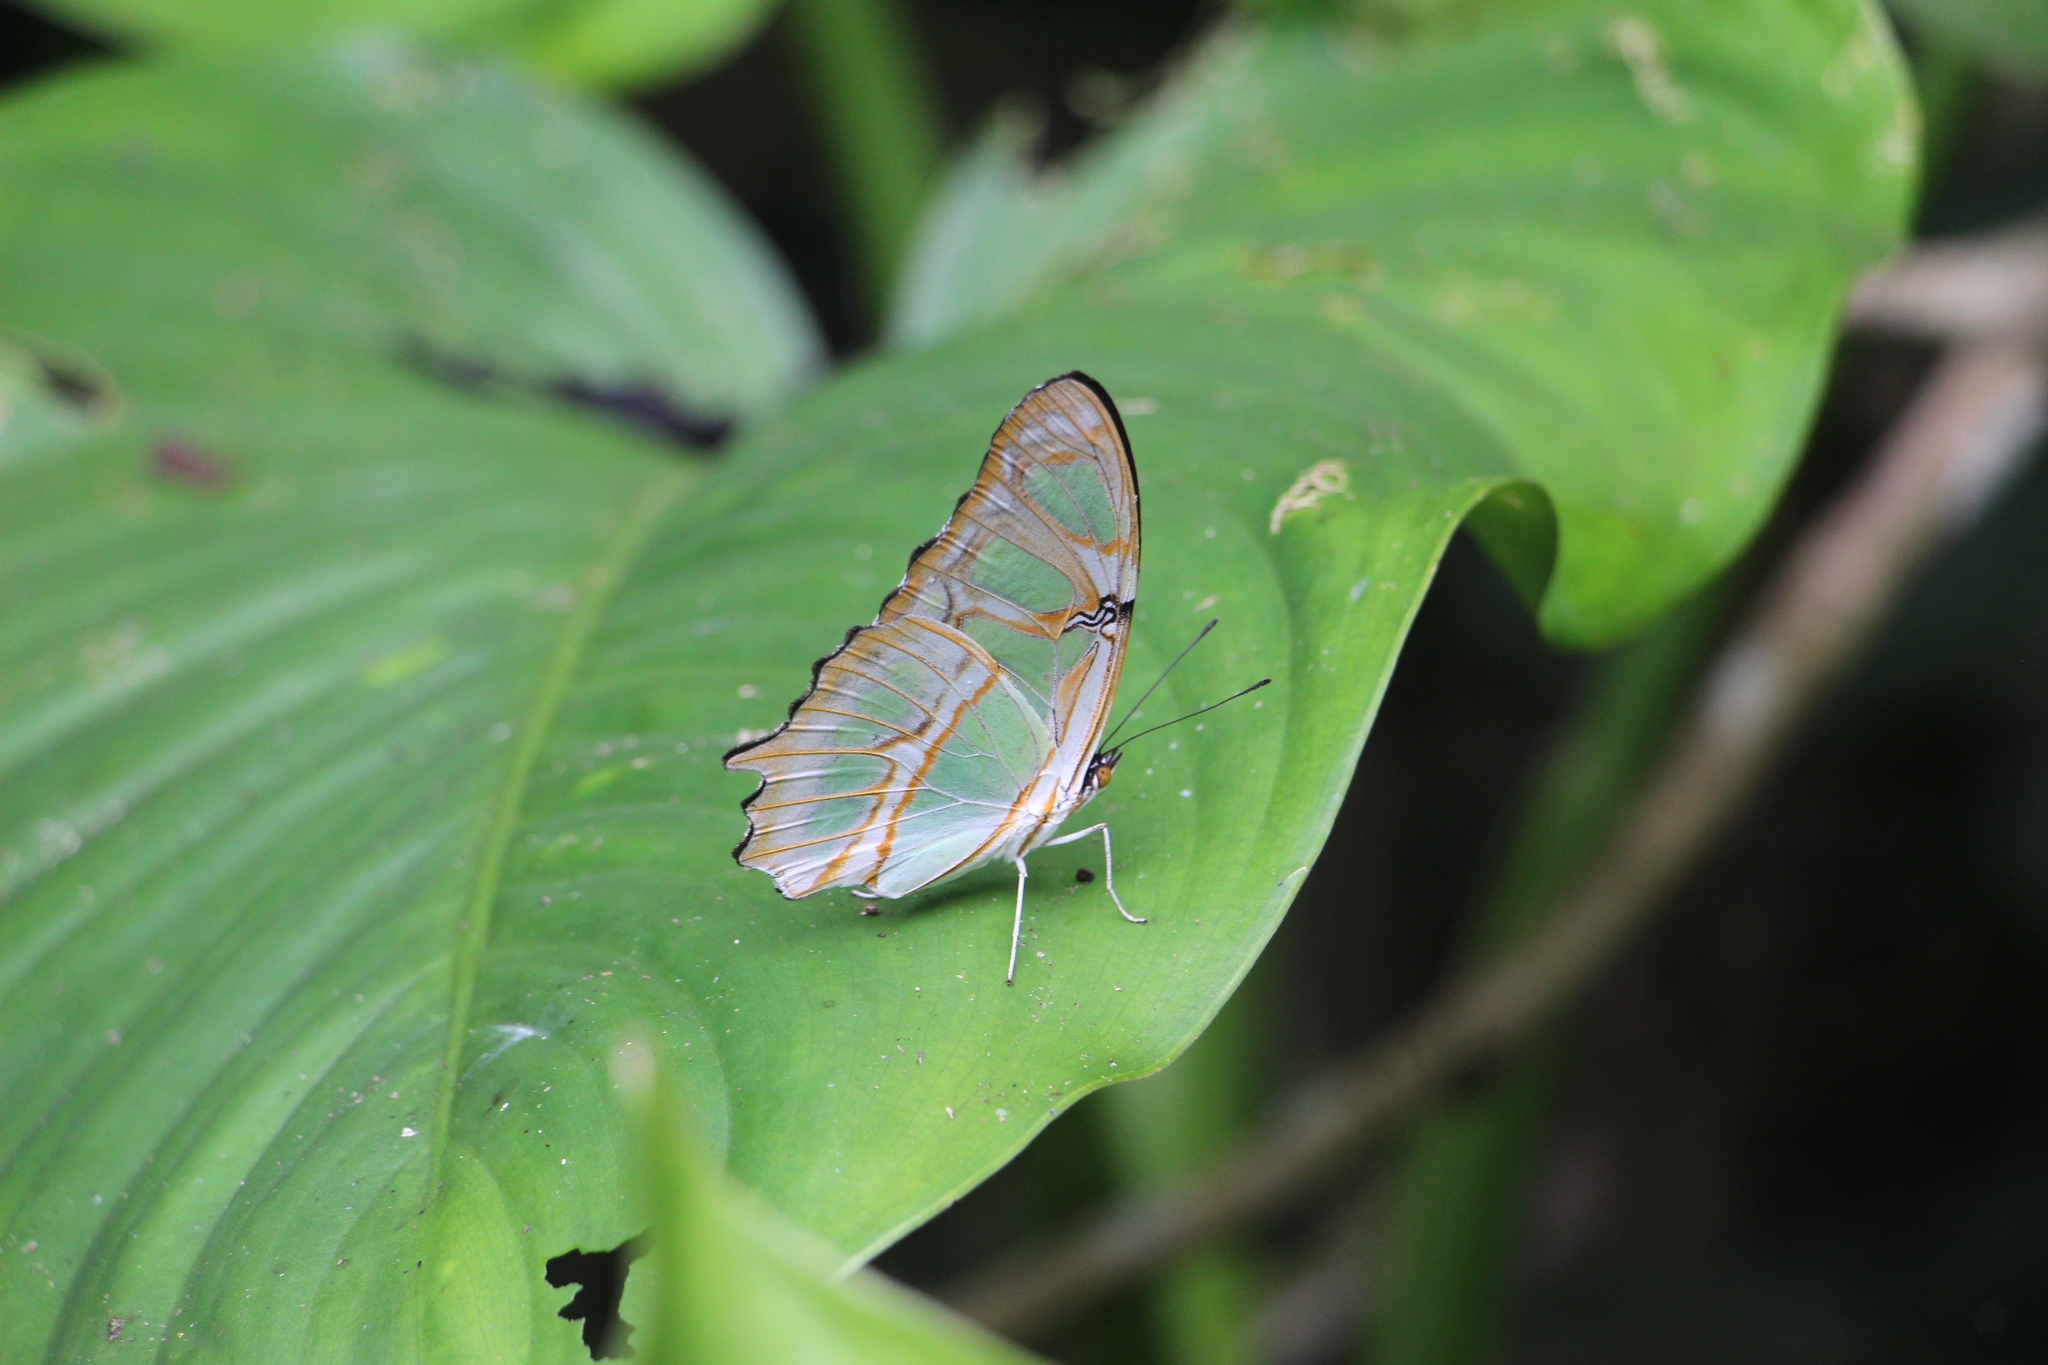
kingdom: Animalia
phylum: Arthropoda
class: Insecta
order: Lepidoptera
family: Nymphalidae
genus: Siproeta
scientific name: Siproeta stelenes
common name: Malachite
